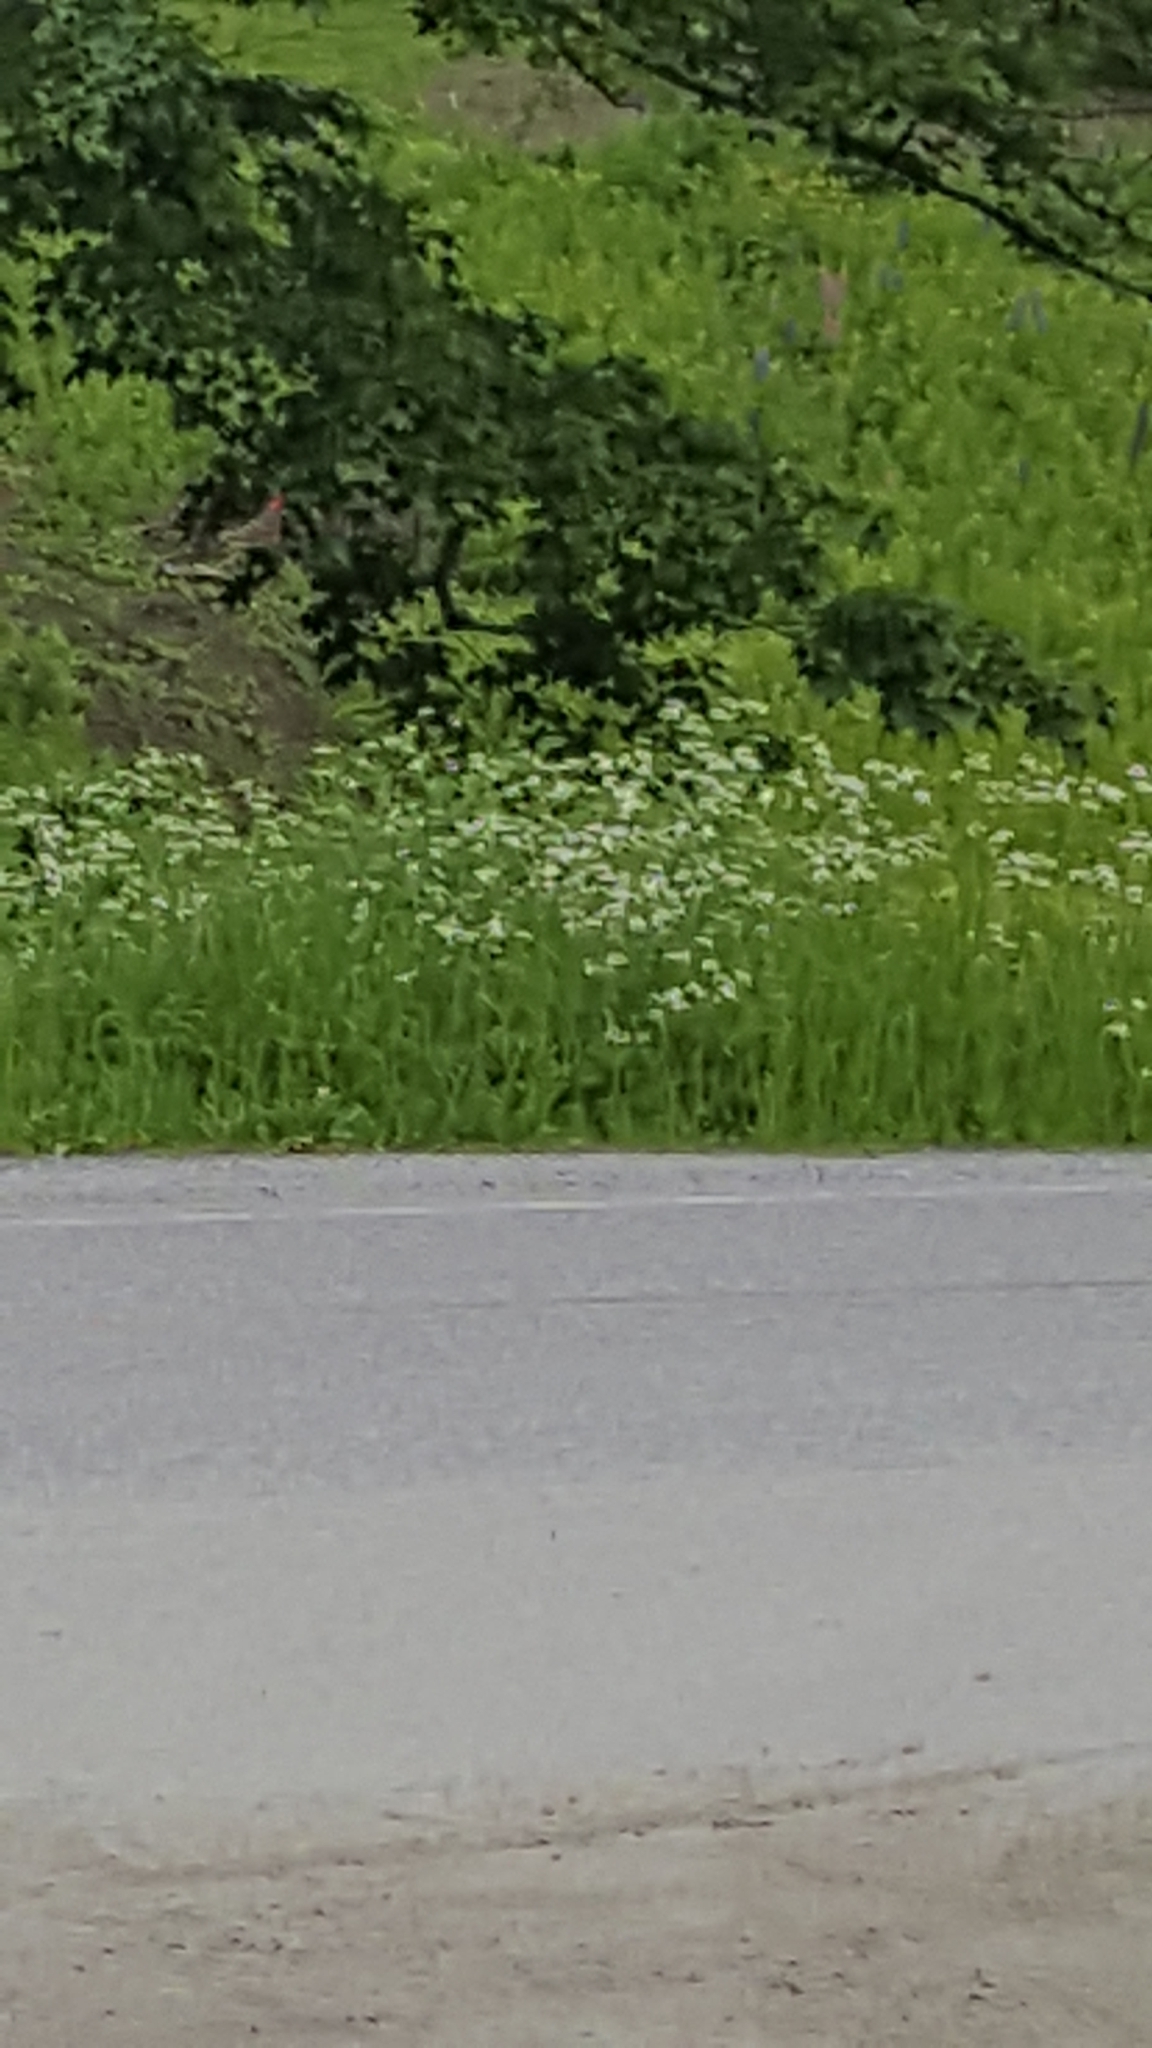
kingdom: Plantae
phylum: Tracheophyta
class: Magnoliopsida
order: Apiales
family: Apiaceae
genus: Anthriscus
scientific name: Anthriscus sylvestris
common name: Cow parsley
